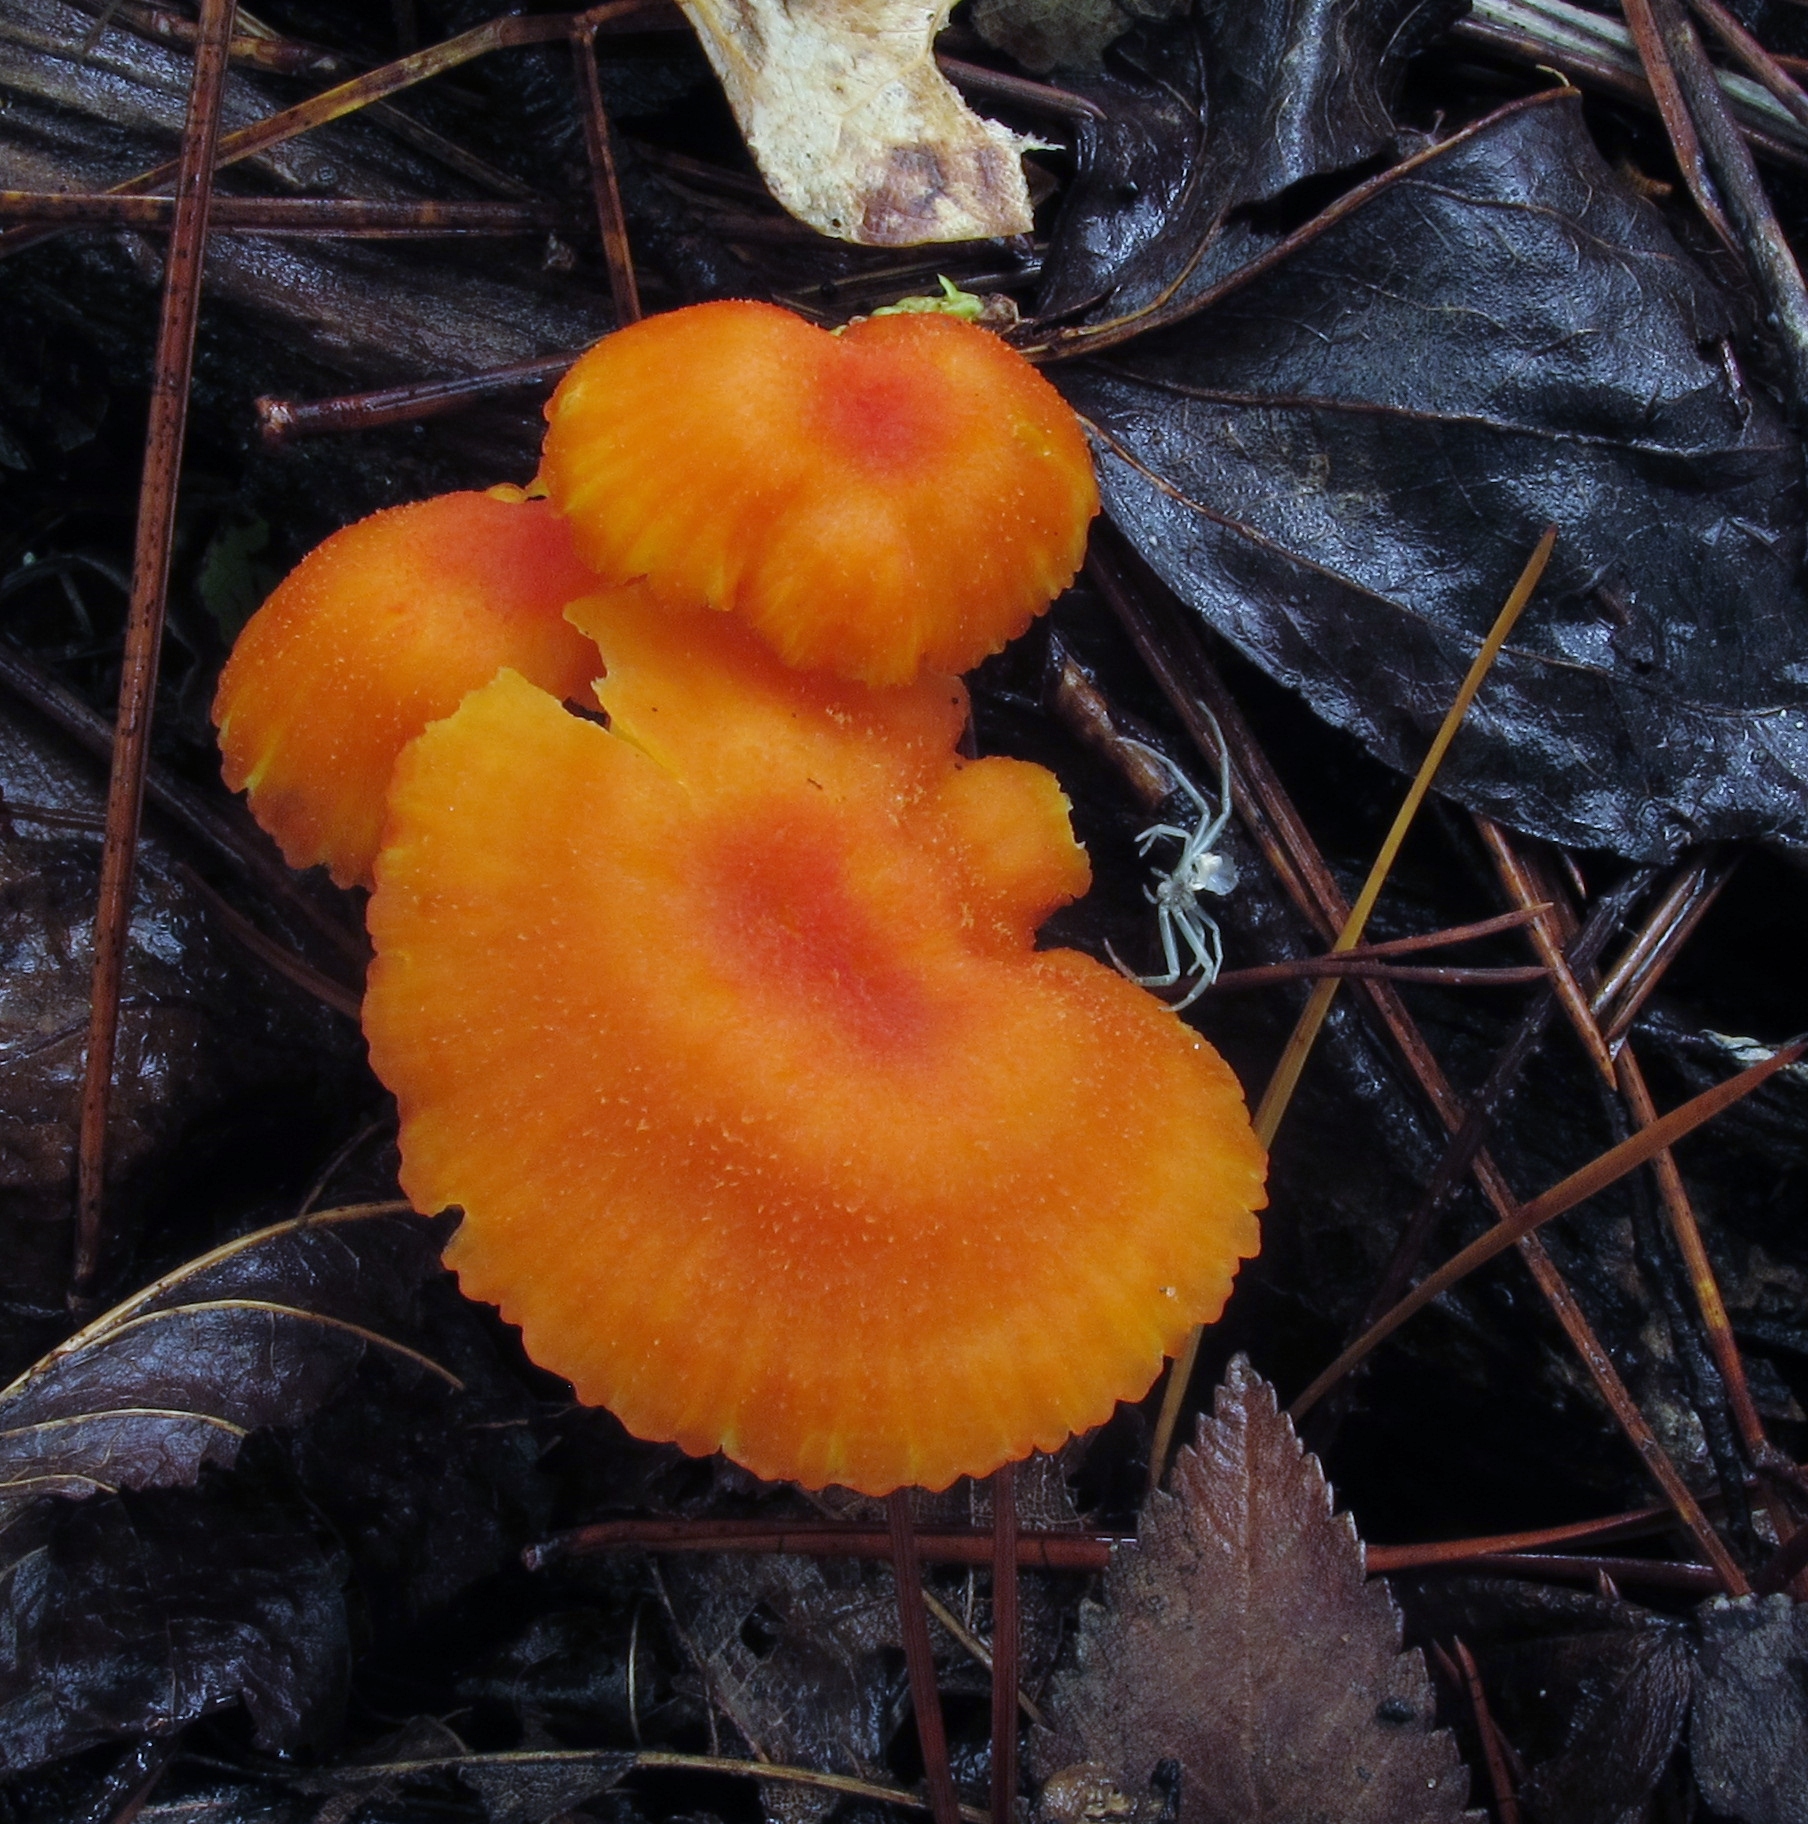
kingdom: Fungi
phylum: Basidiomycota
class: Agaricomycetes
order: Agaricales
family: Hygrophoraceae
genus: Hygrocybe
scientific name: Hygrocybe miniata
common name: Vermilion waxcap
